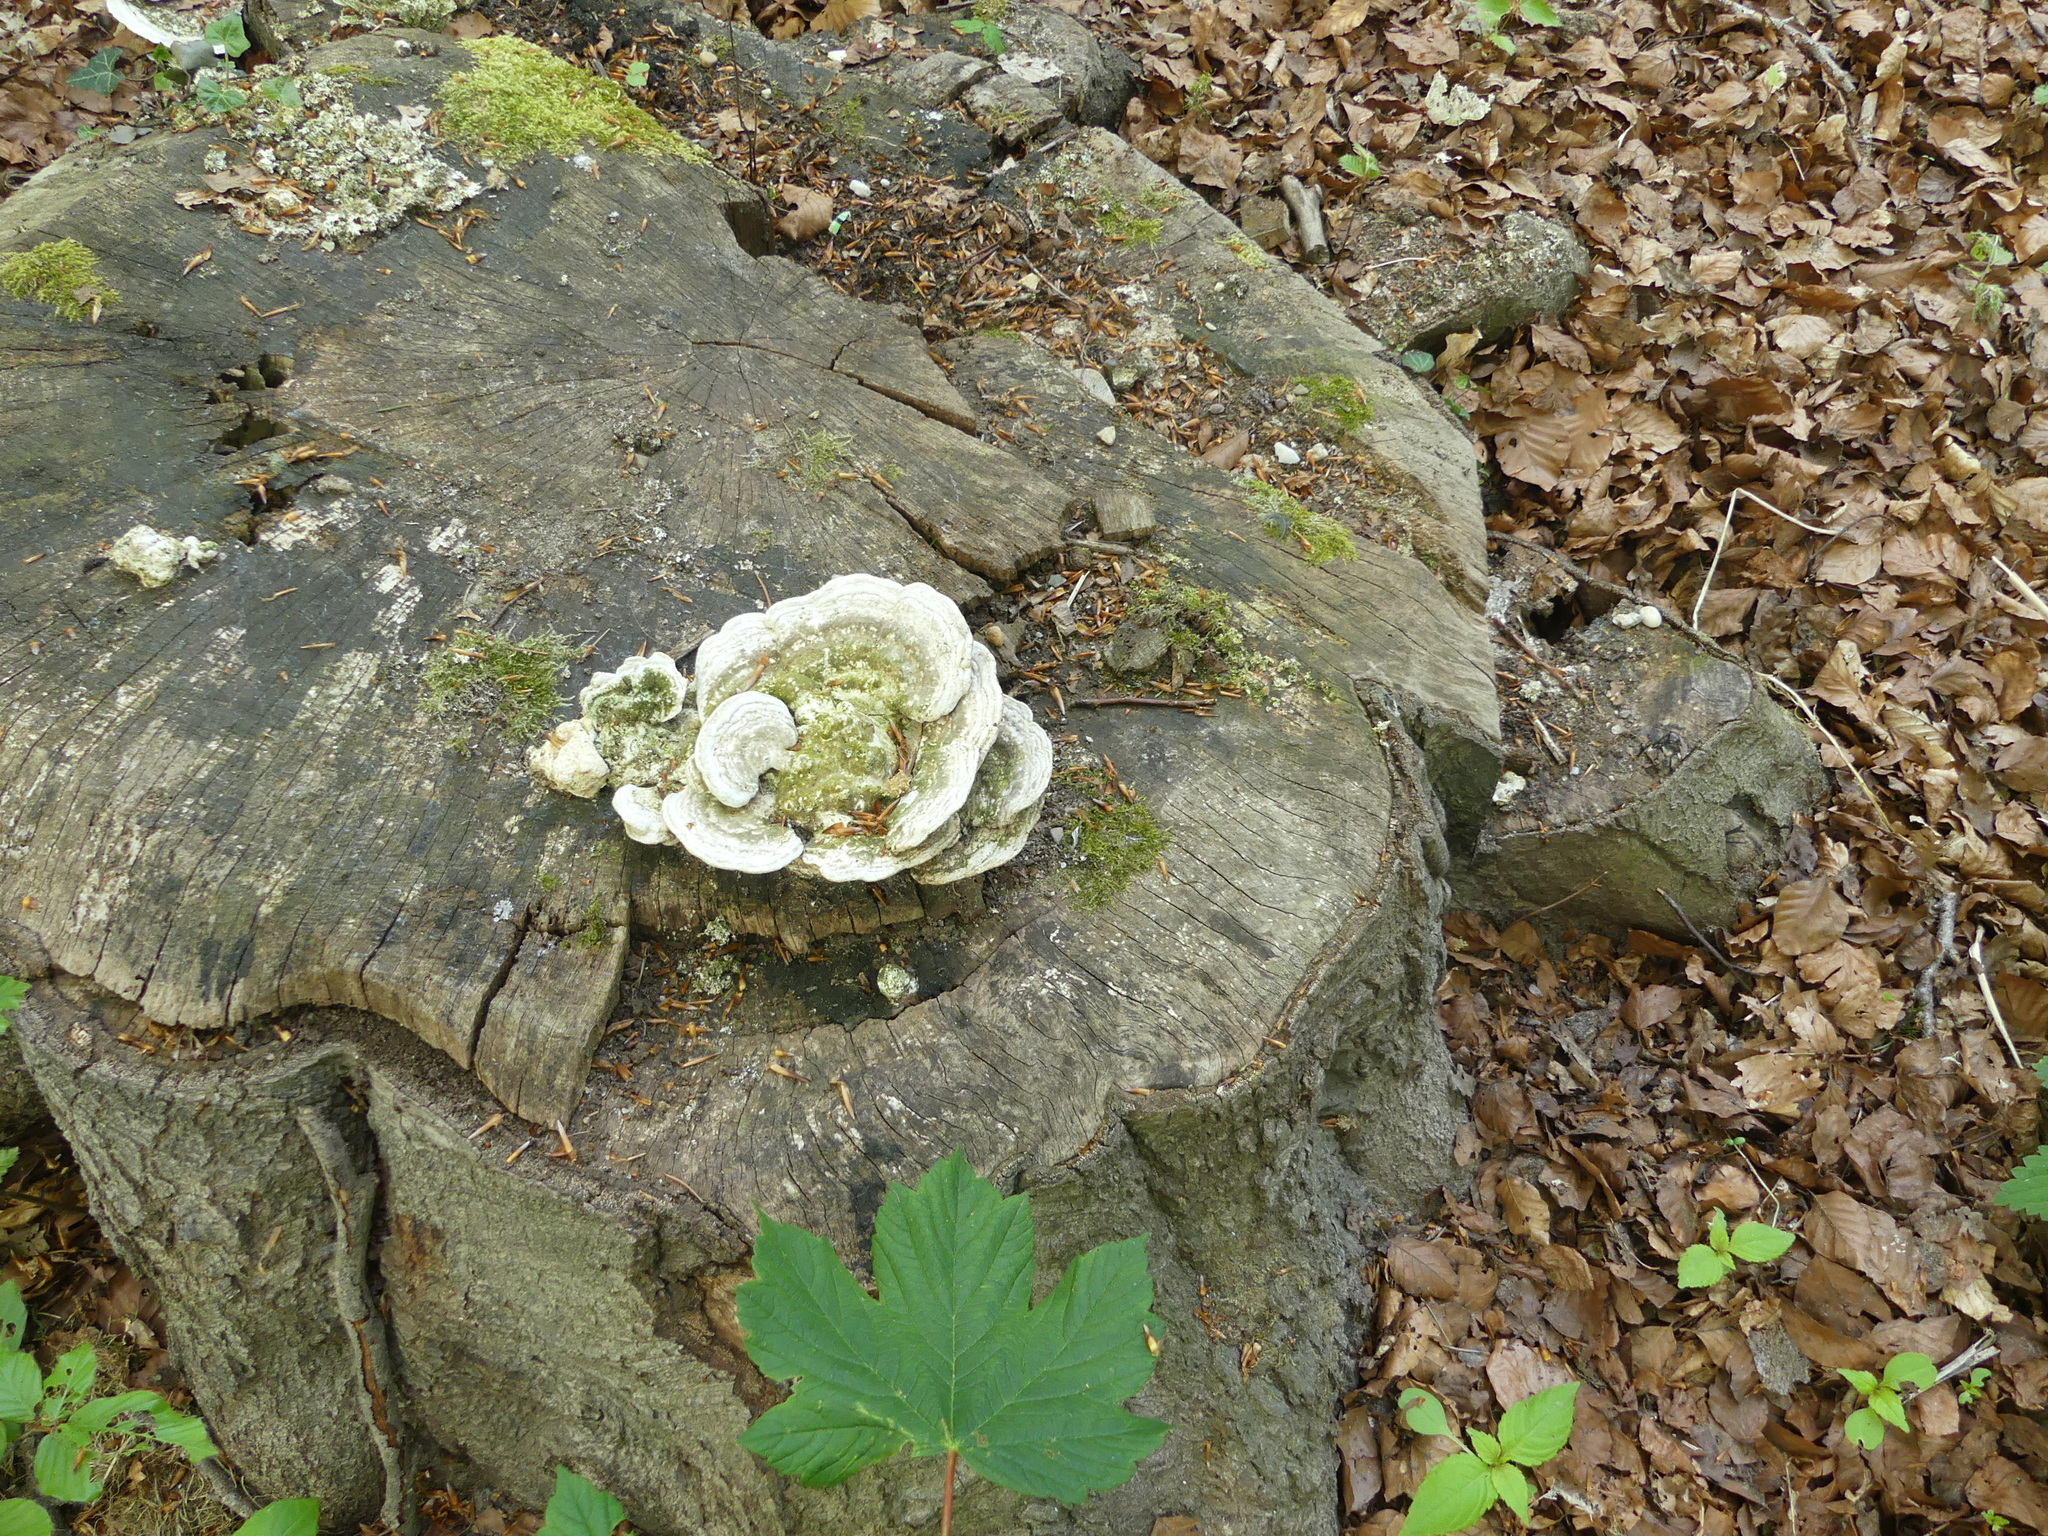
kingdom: Fungi
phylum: Basidiomycota
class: Agaricomycetes
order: Polyporales
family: Polyporaceae
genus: Trametes
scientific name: Trametes gibbosa
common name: Lumpy bracket
